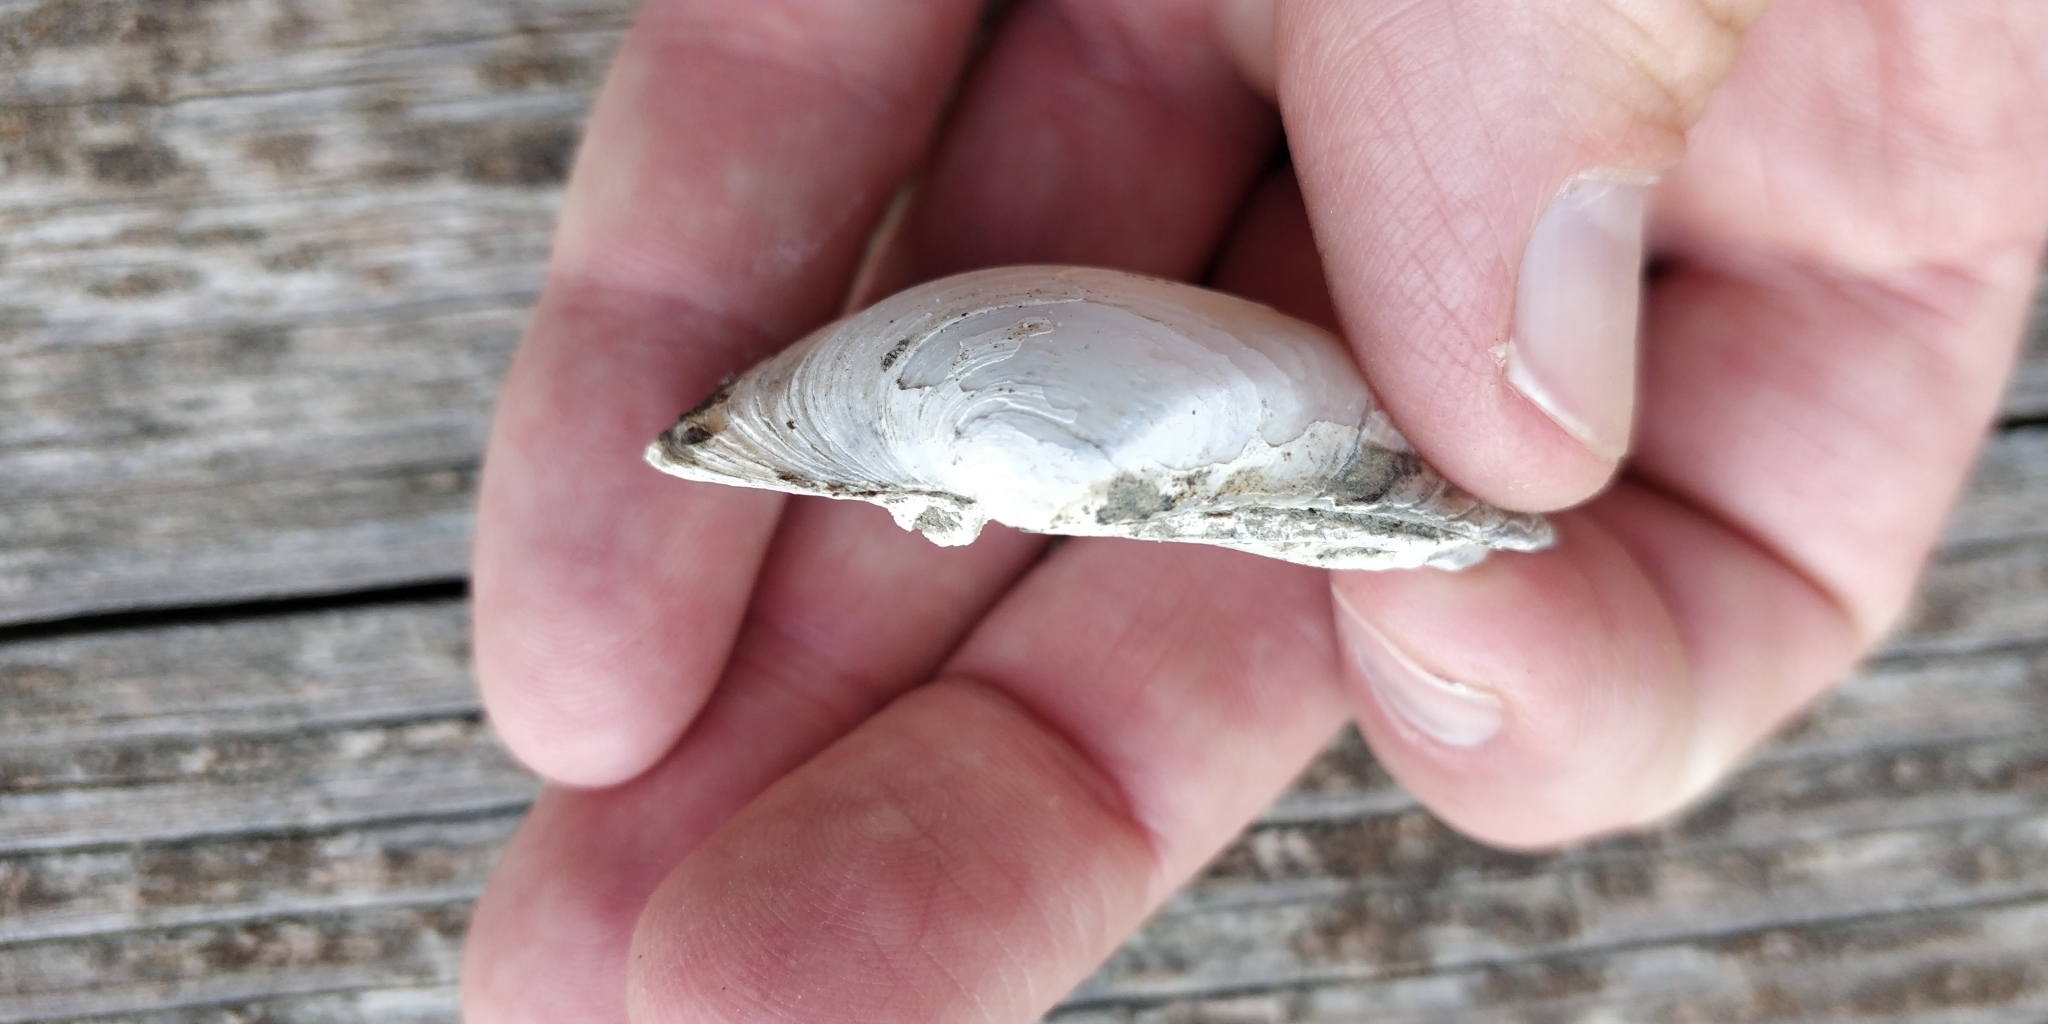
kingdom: Animalia
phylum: Mollusca
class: Bivalvia
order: Unionida
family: Unionidae
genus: Fusconaia
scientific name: Fusconaia flava
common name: Wabash pigtoe
